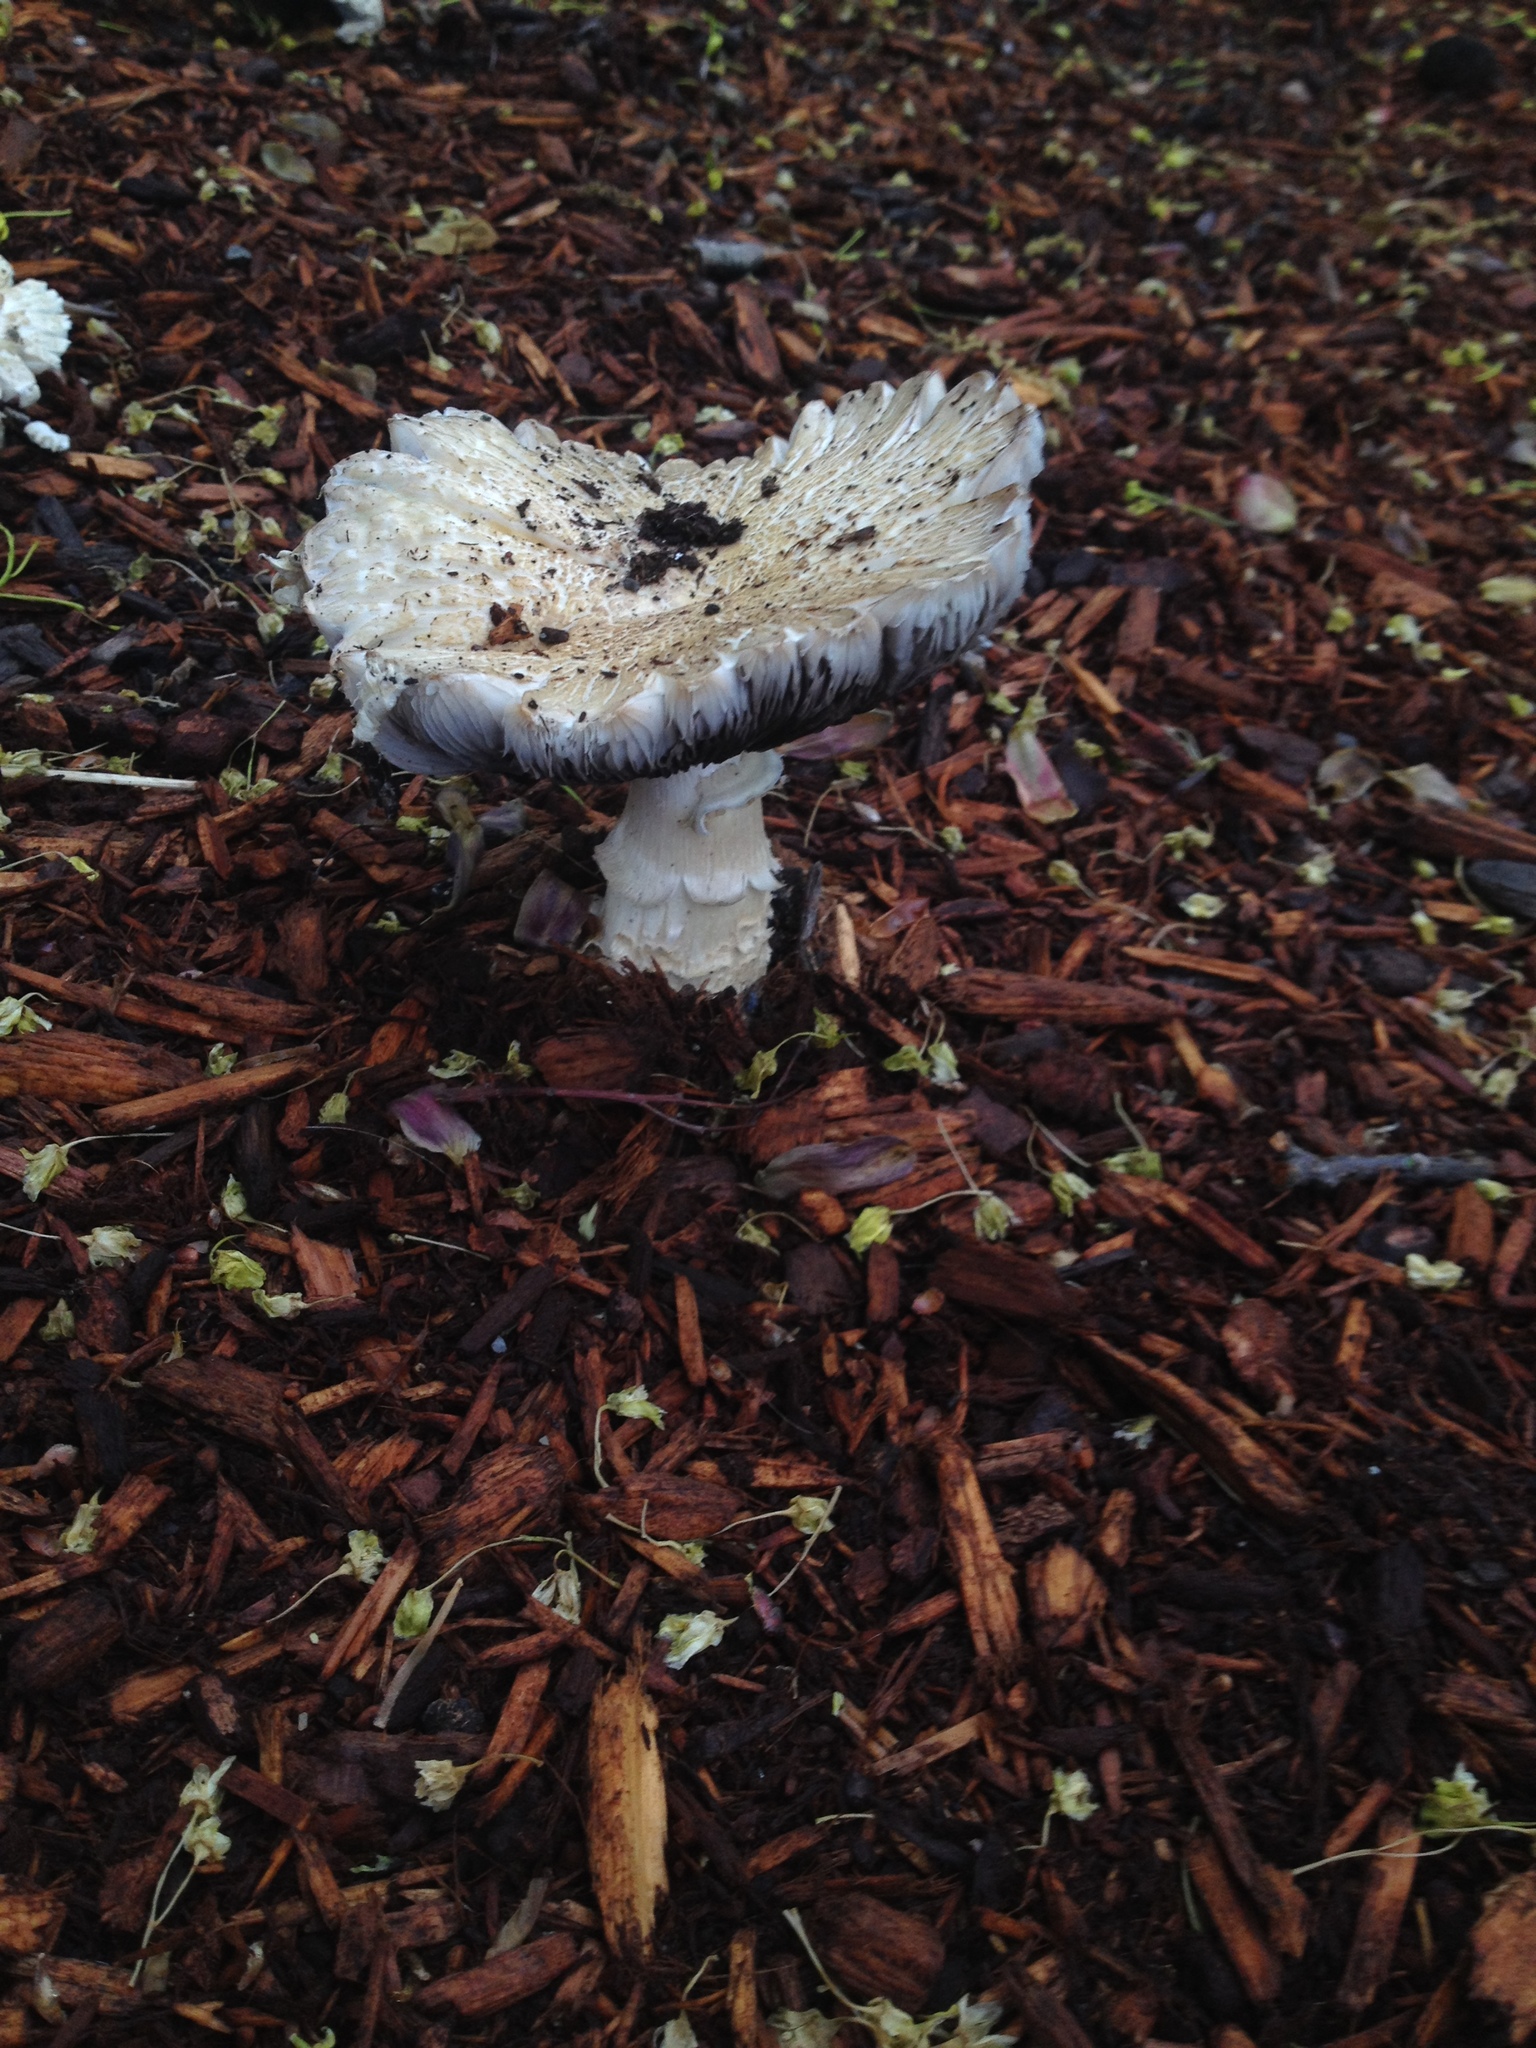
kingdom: Fungi
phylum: Basidiomycota
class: Agaricomycetes
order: Agaricales
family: Strophariaceae
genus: Stropharia
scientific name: Stropharia rugosoannulata
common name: Wine roundhead
